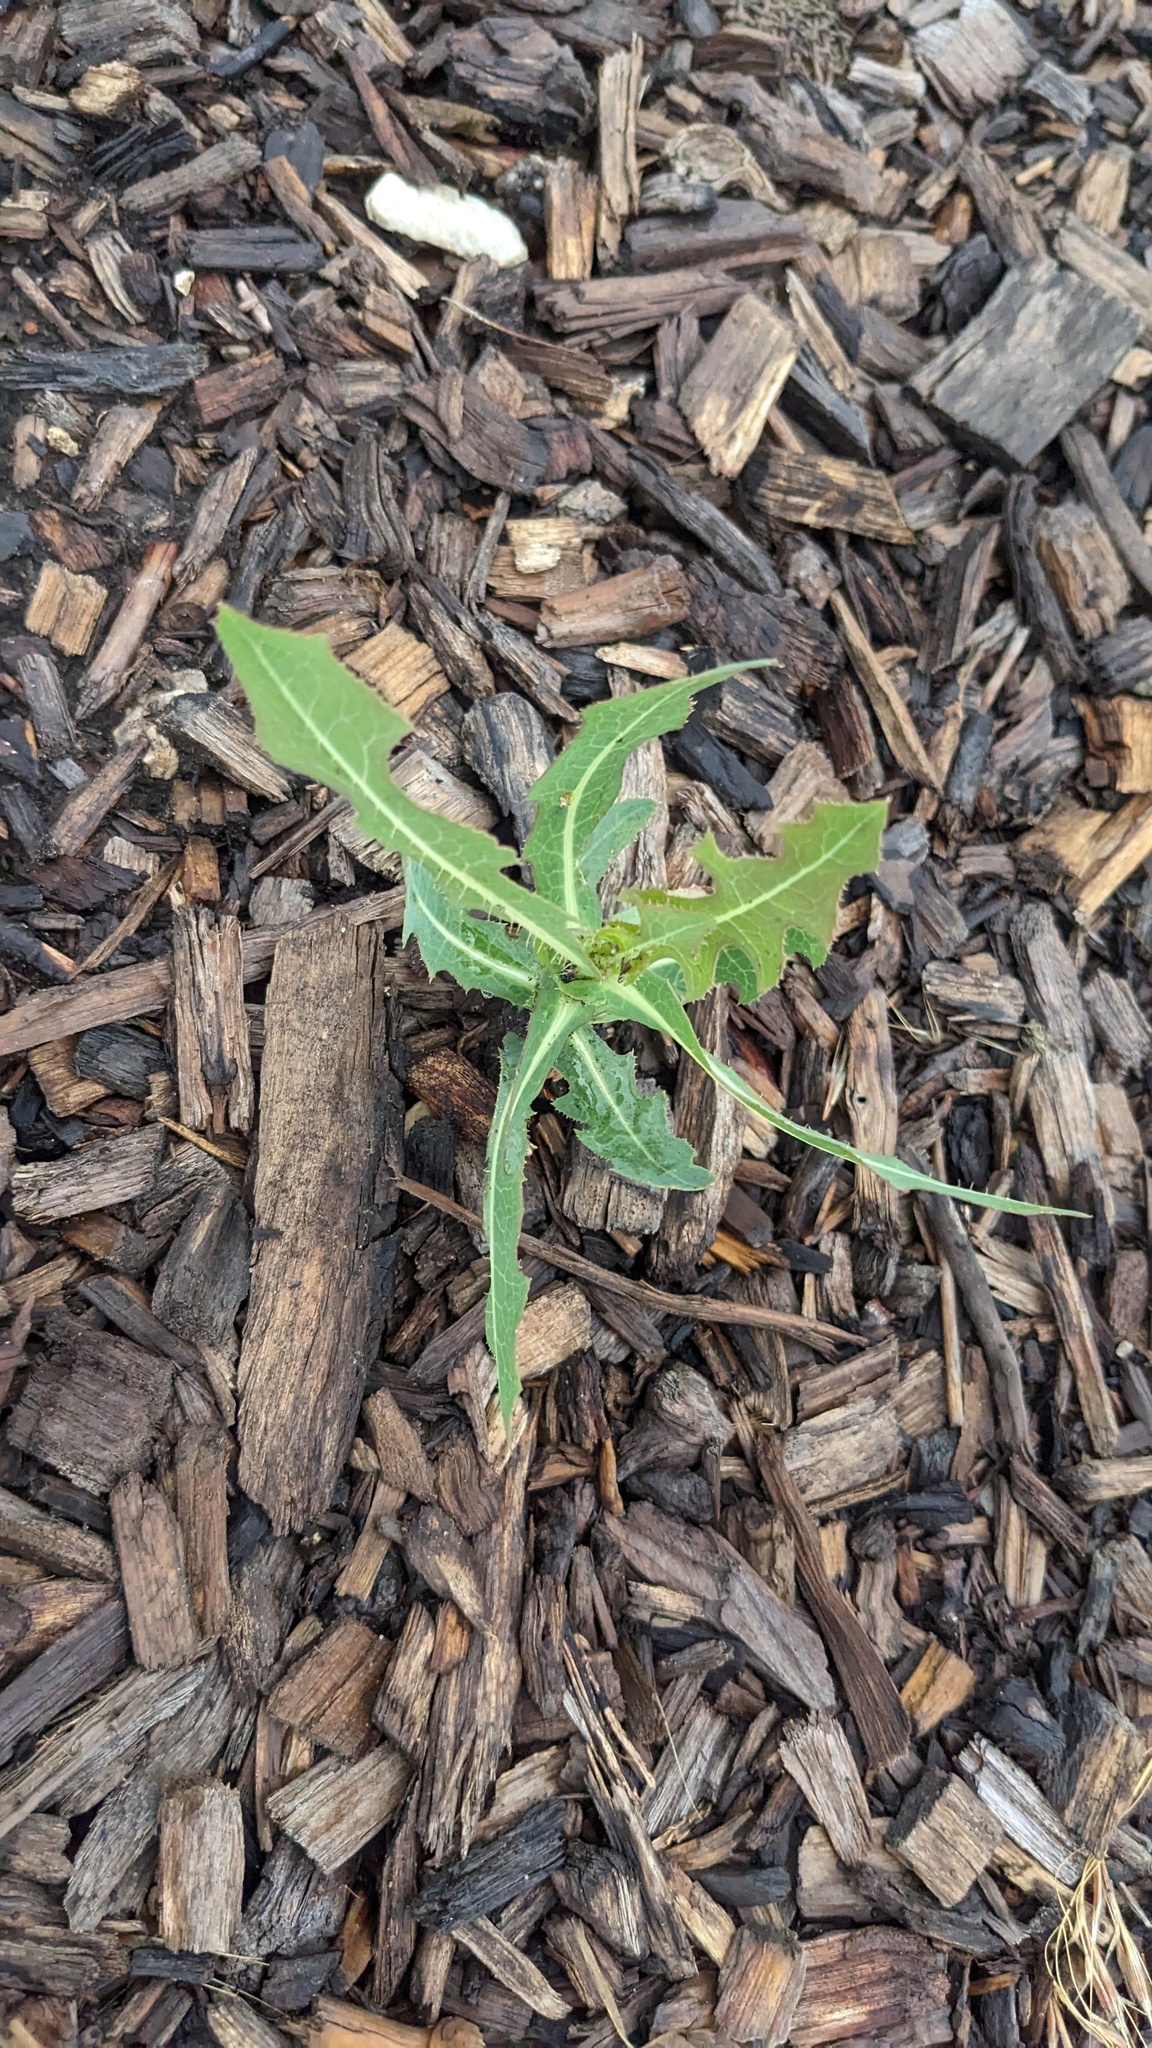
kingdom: Plantae
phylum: Tracheophyta
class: Magnoliopsida
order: Asterales
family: Asteraceae
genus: Lactuca
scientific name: Lactuca serriola
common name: Prickly lettuce
